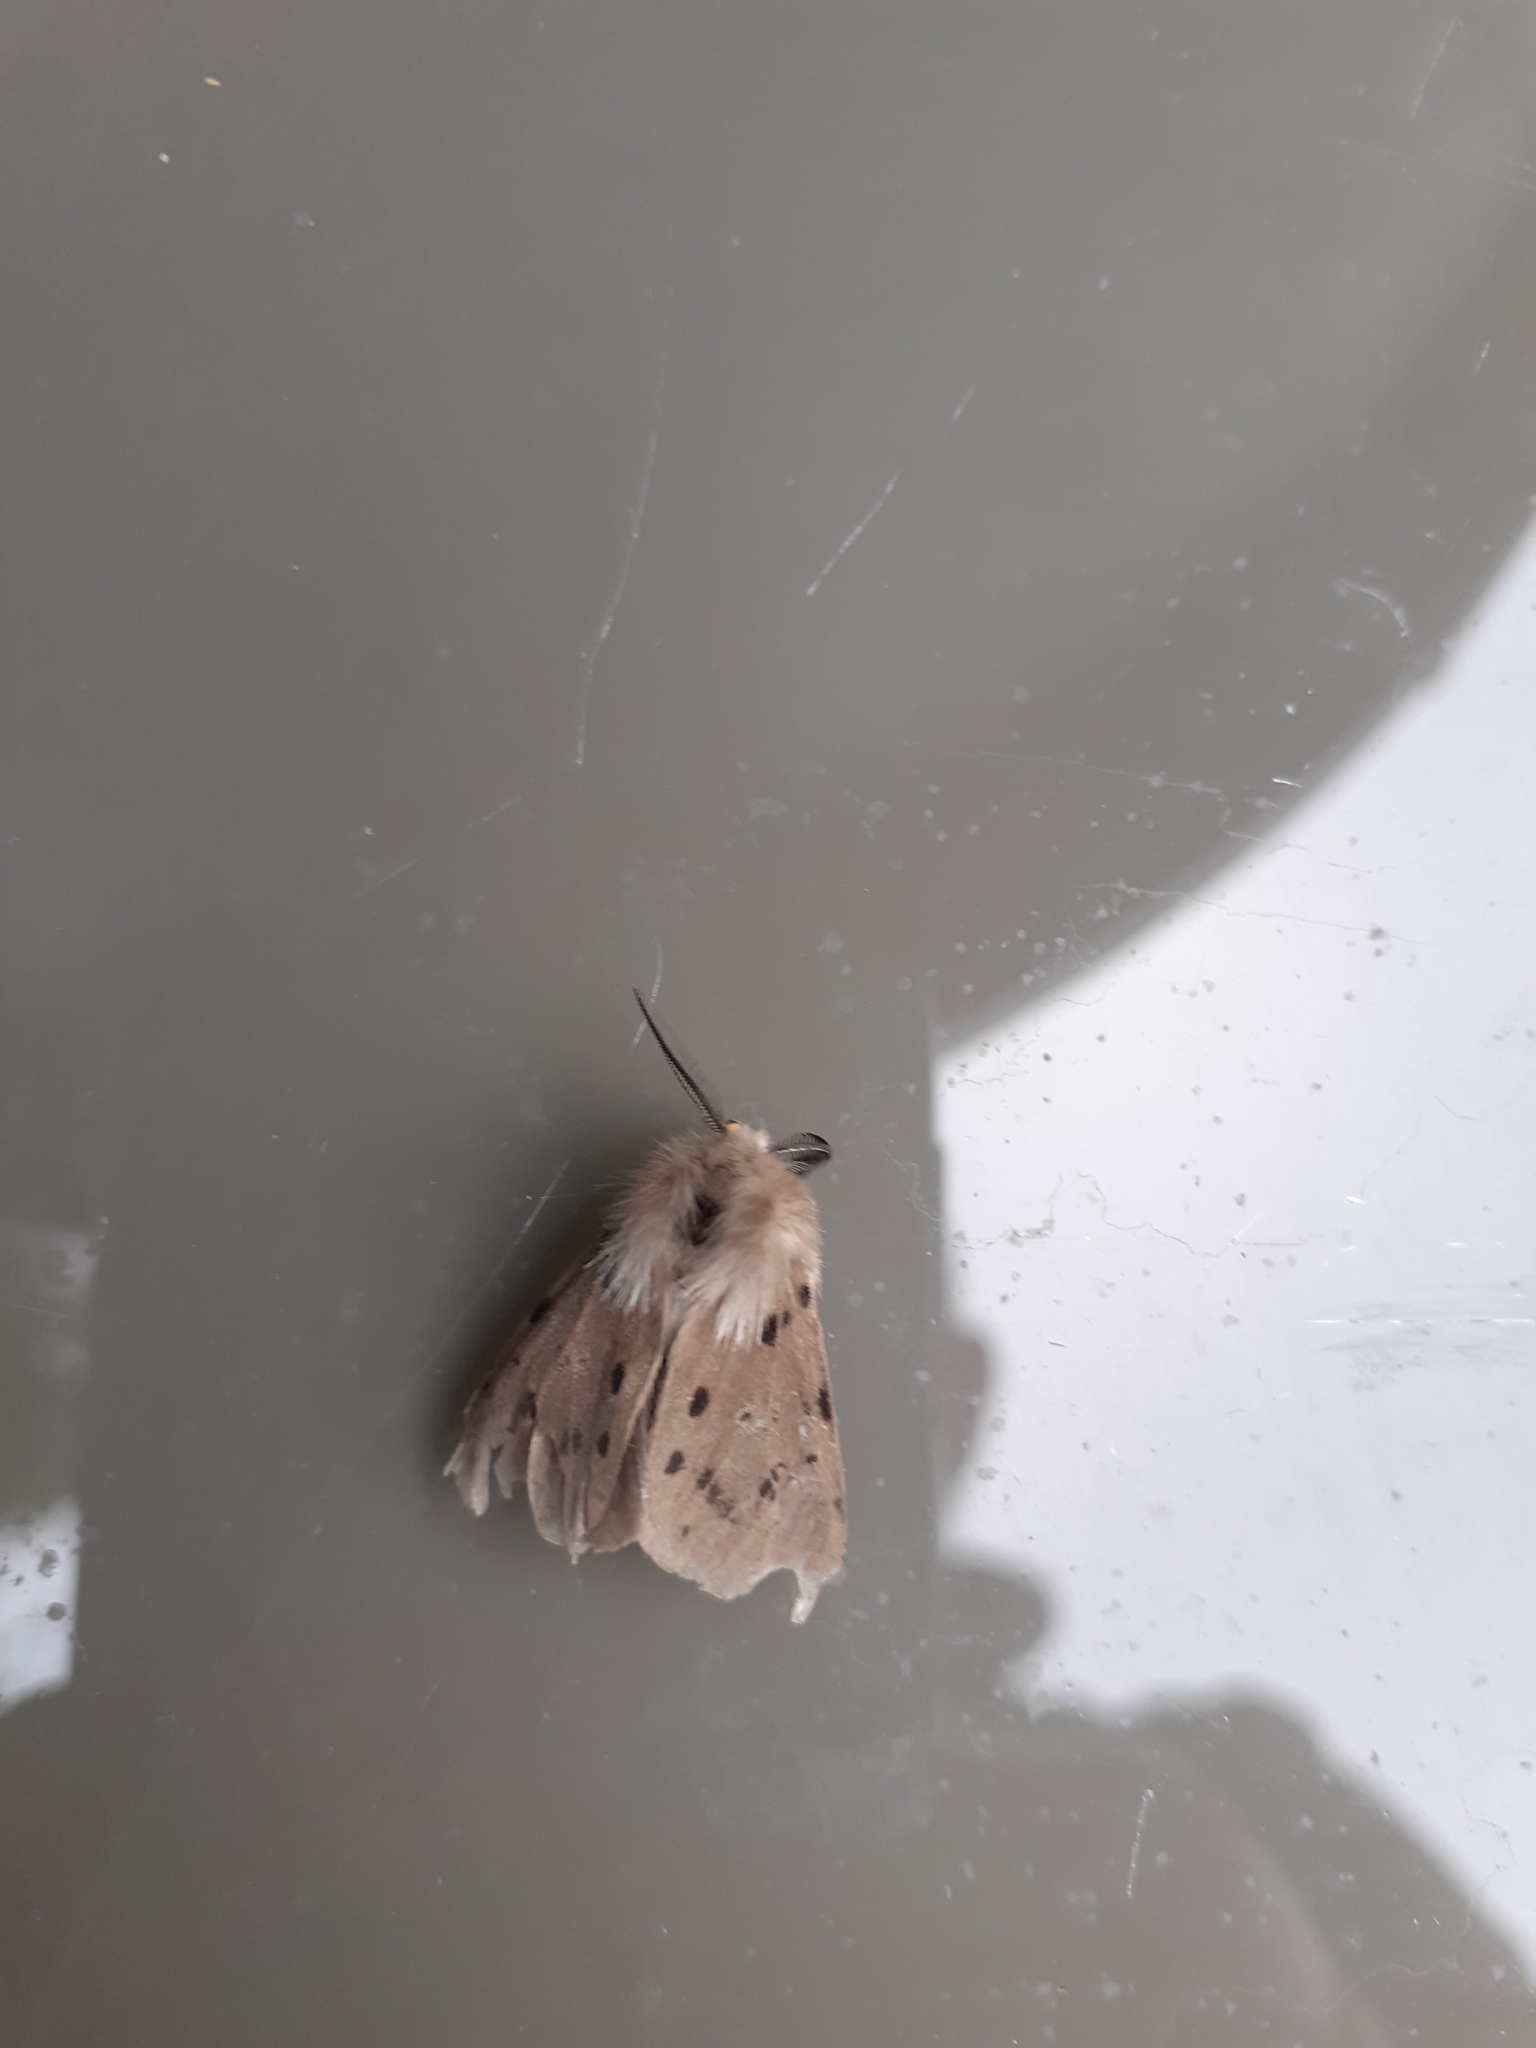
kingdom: Animalia
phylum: Arthropoda
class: Insecta
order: Lepidoptera
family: Erebidae
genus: Diaphora
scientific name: Diaphora mendica
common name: Muslin moth
